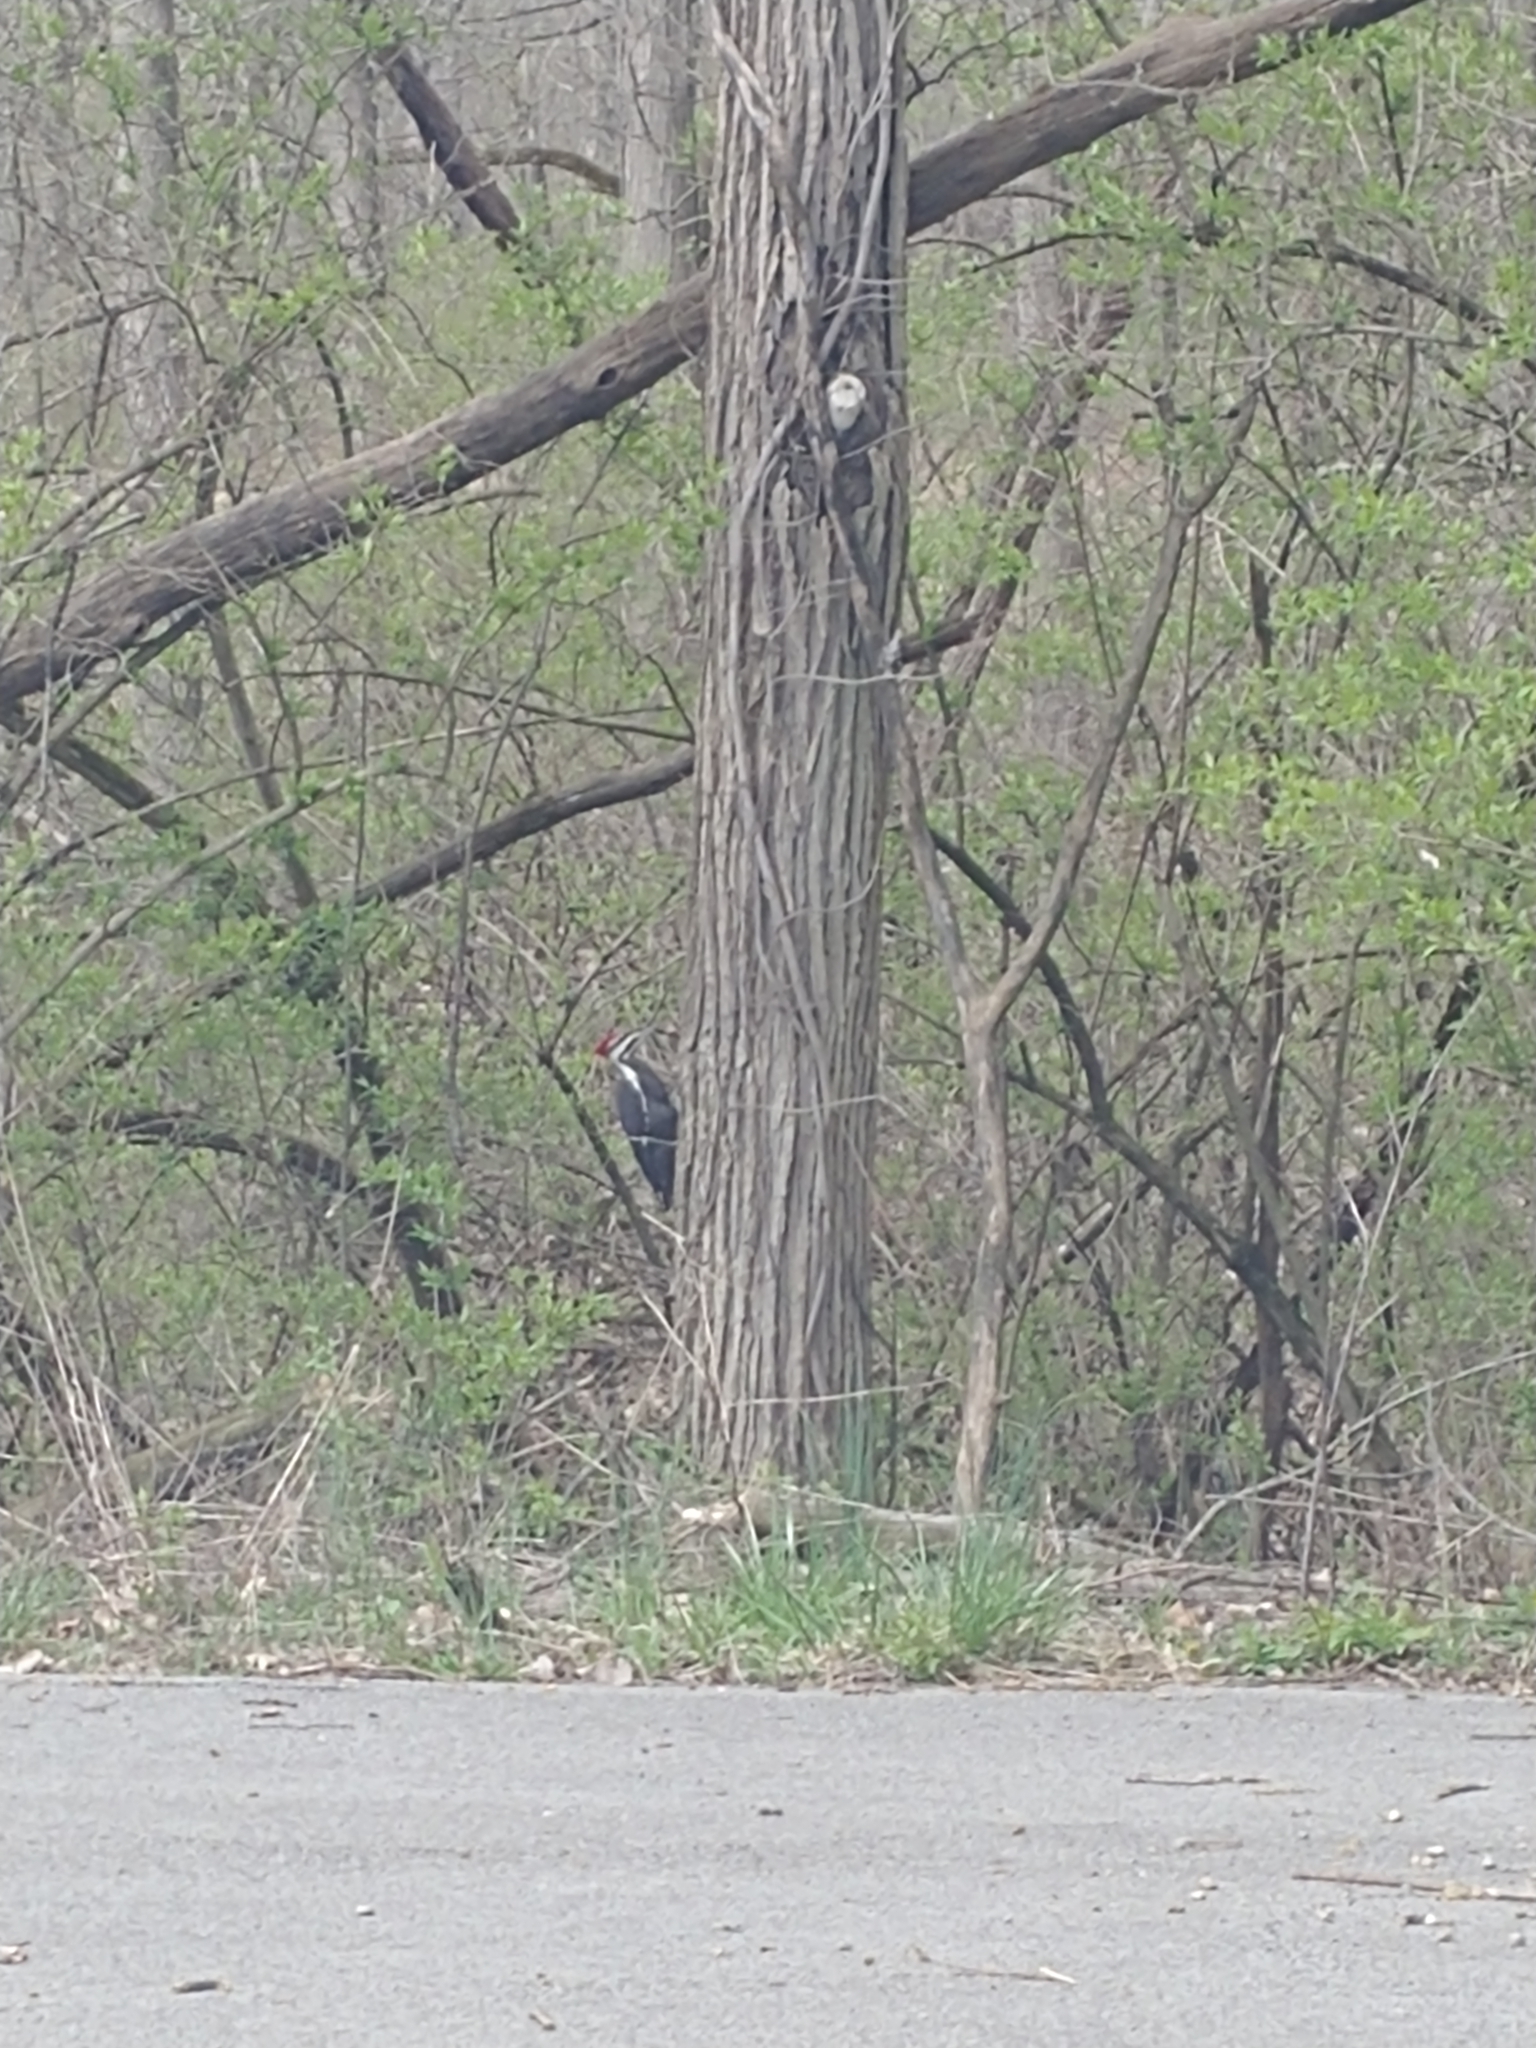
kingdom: Animalia
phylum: Chordata
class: Aves
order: Piciformes
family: Picidae
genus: Dryocopus
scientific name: Dryocopus pileatus
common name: Pileated woodpecker
